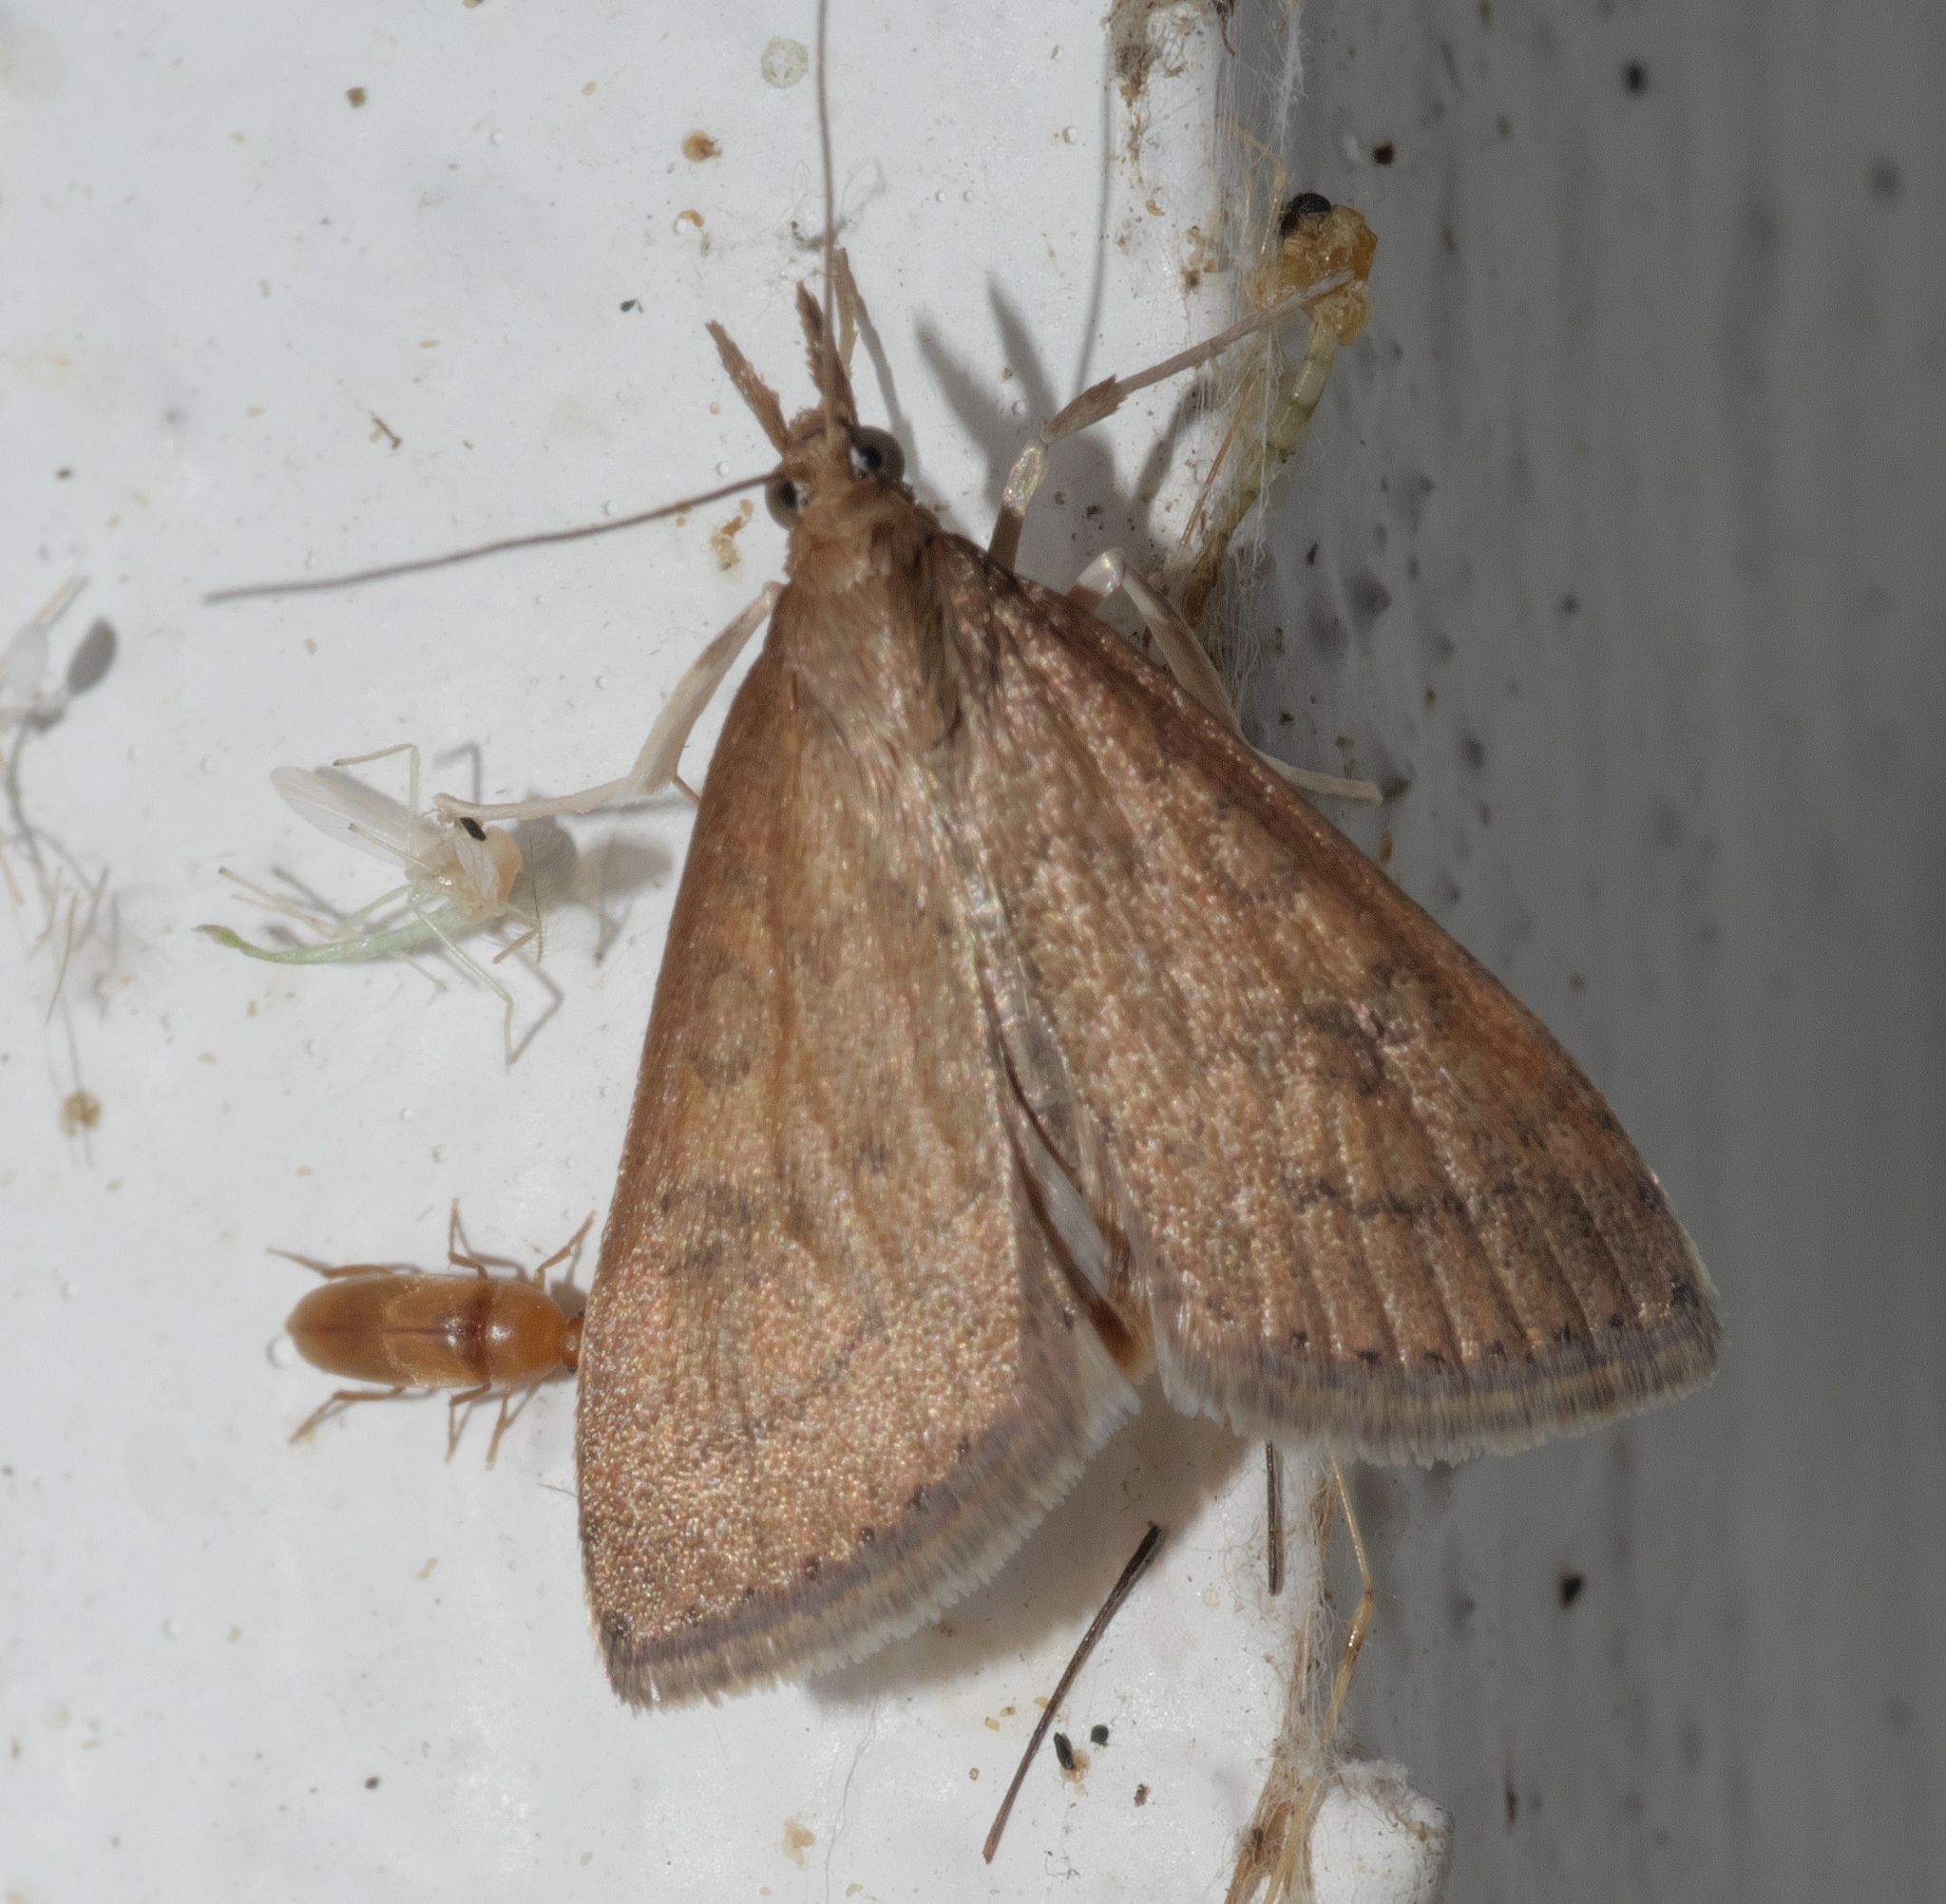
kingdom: Animalia
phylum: Arthropoda
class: Insecta
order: Lepidoptera
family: Crambidae
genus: Udea
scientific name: Udea rubigalis
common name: Celery leaftier moth
